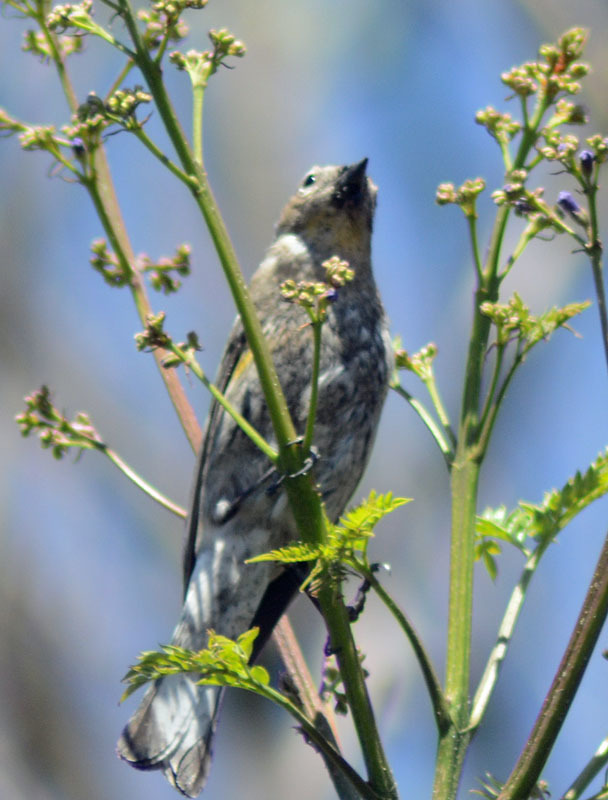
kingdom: Animalia
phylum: Chordata
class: Aves
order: Passeriformes
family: Parulidae
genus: Setophaga
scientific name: Setophaga coronata
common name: Myrtle warbler
